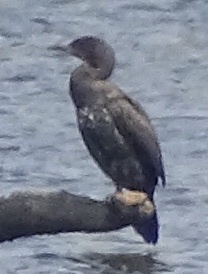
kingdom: Animalia
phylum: Chordata
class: Aves
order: Suliformes
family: Phalacrocoracidae
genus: Phalacrocorax
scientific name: Phalacrocorax carbo
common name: Great cormorant
